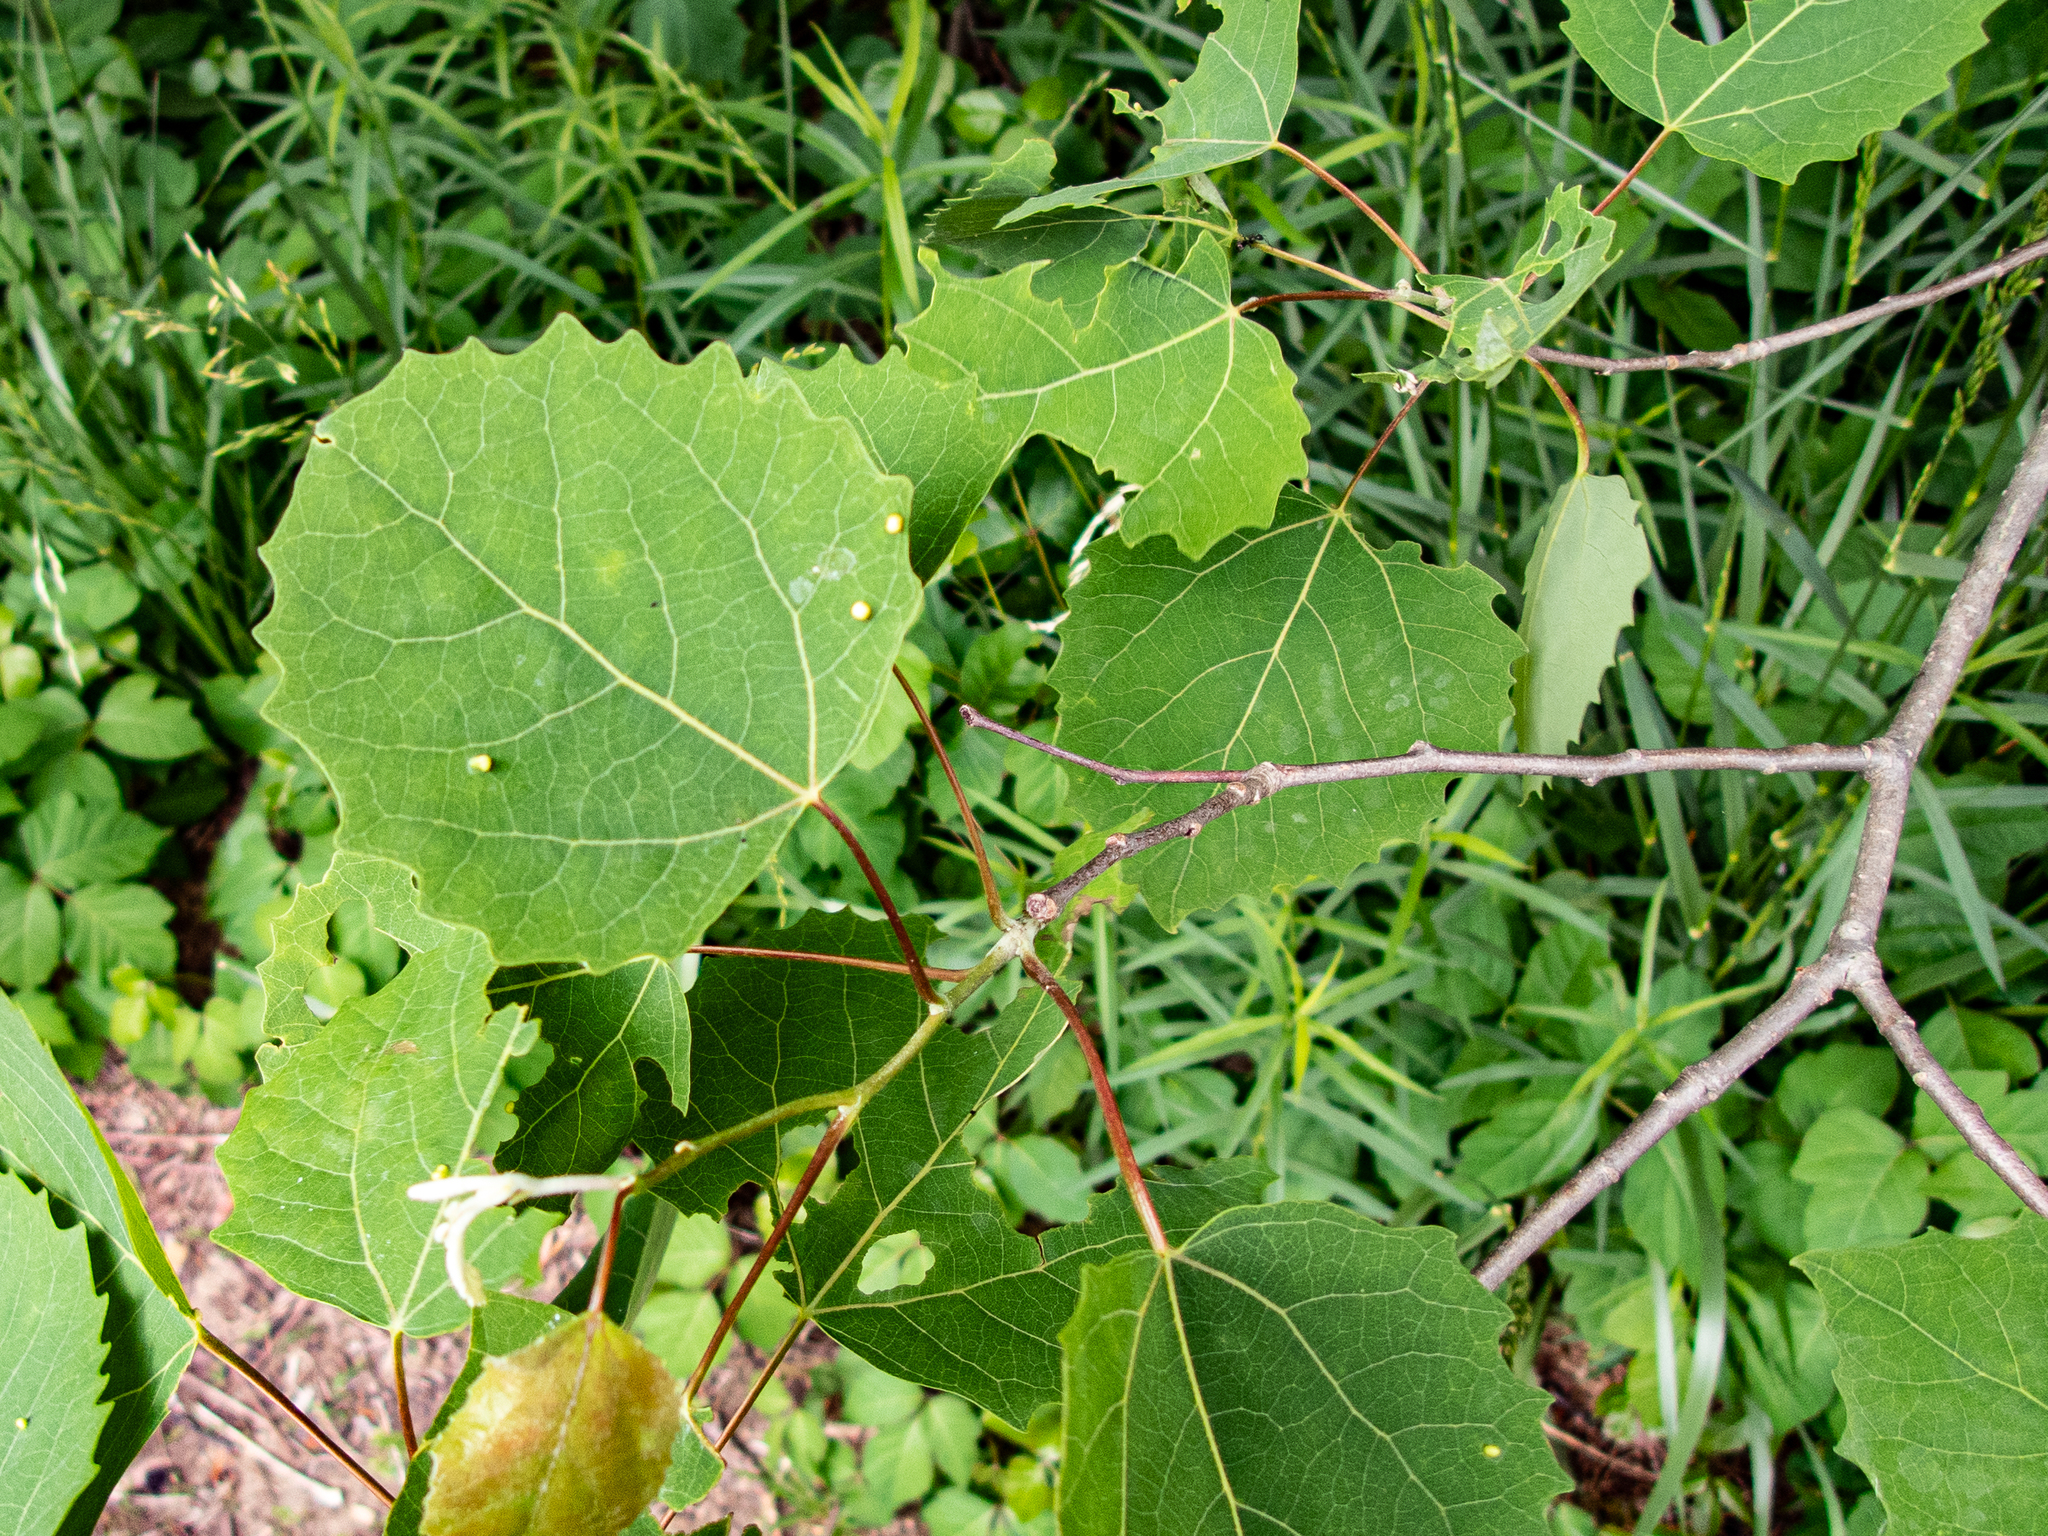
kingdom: Animalia
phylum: Arthropoda
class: Arachnida
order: Trombidiformes
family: Eriophyidae
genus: Phyllocoptes
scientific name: Phyllocoptes
